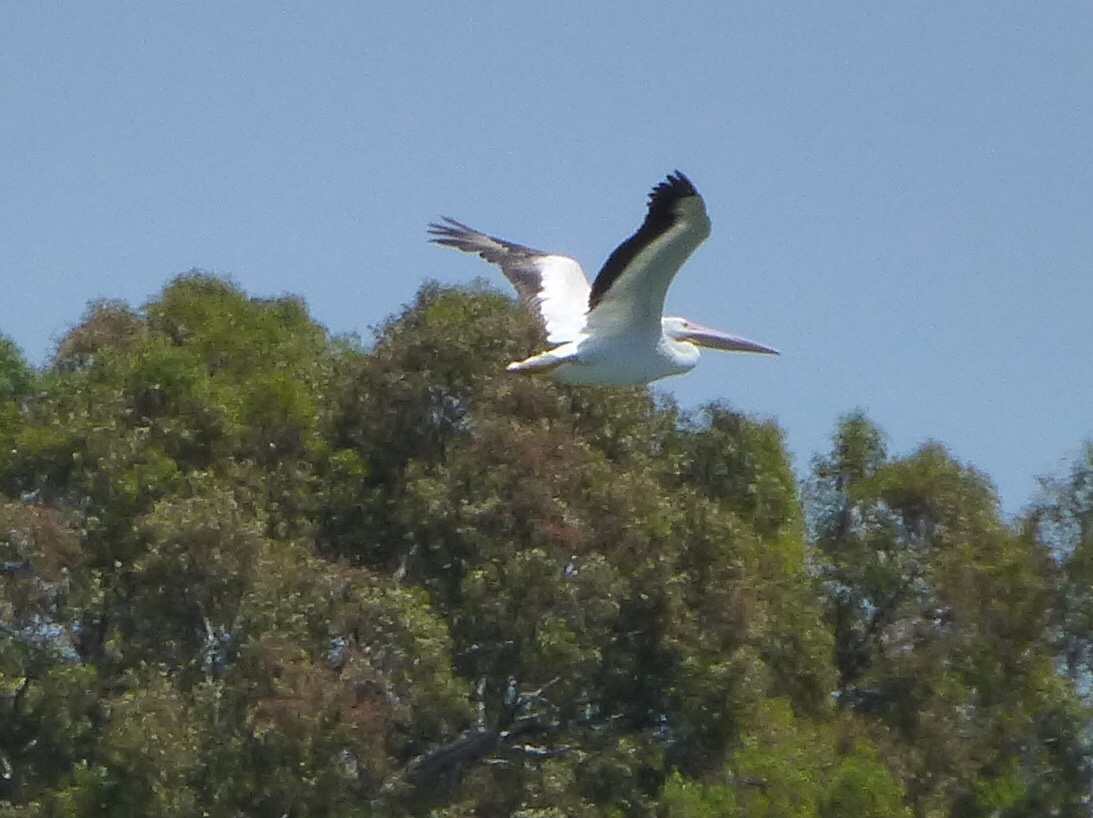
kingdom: Animalia
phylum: Chordata
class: Aves
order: Pelecaniformes
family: Pelecanidae
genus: Pelecanus
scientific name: Pelecanus erythrorhynchos
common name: American white pelican
